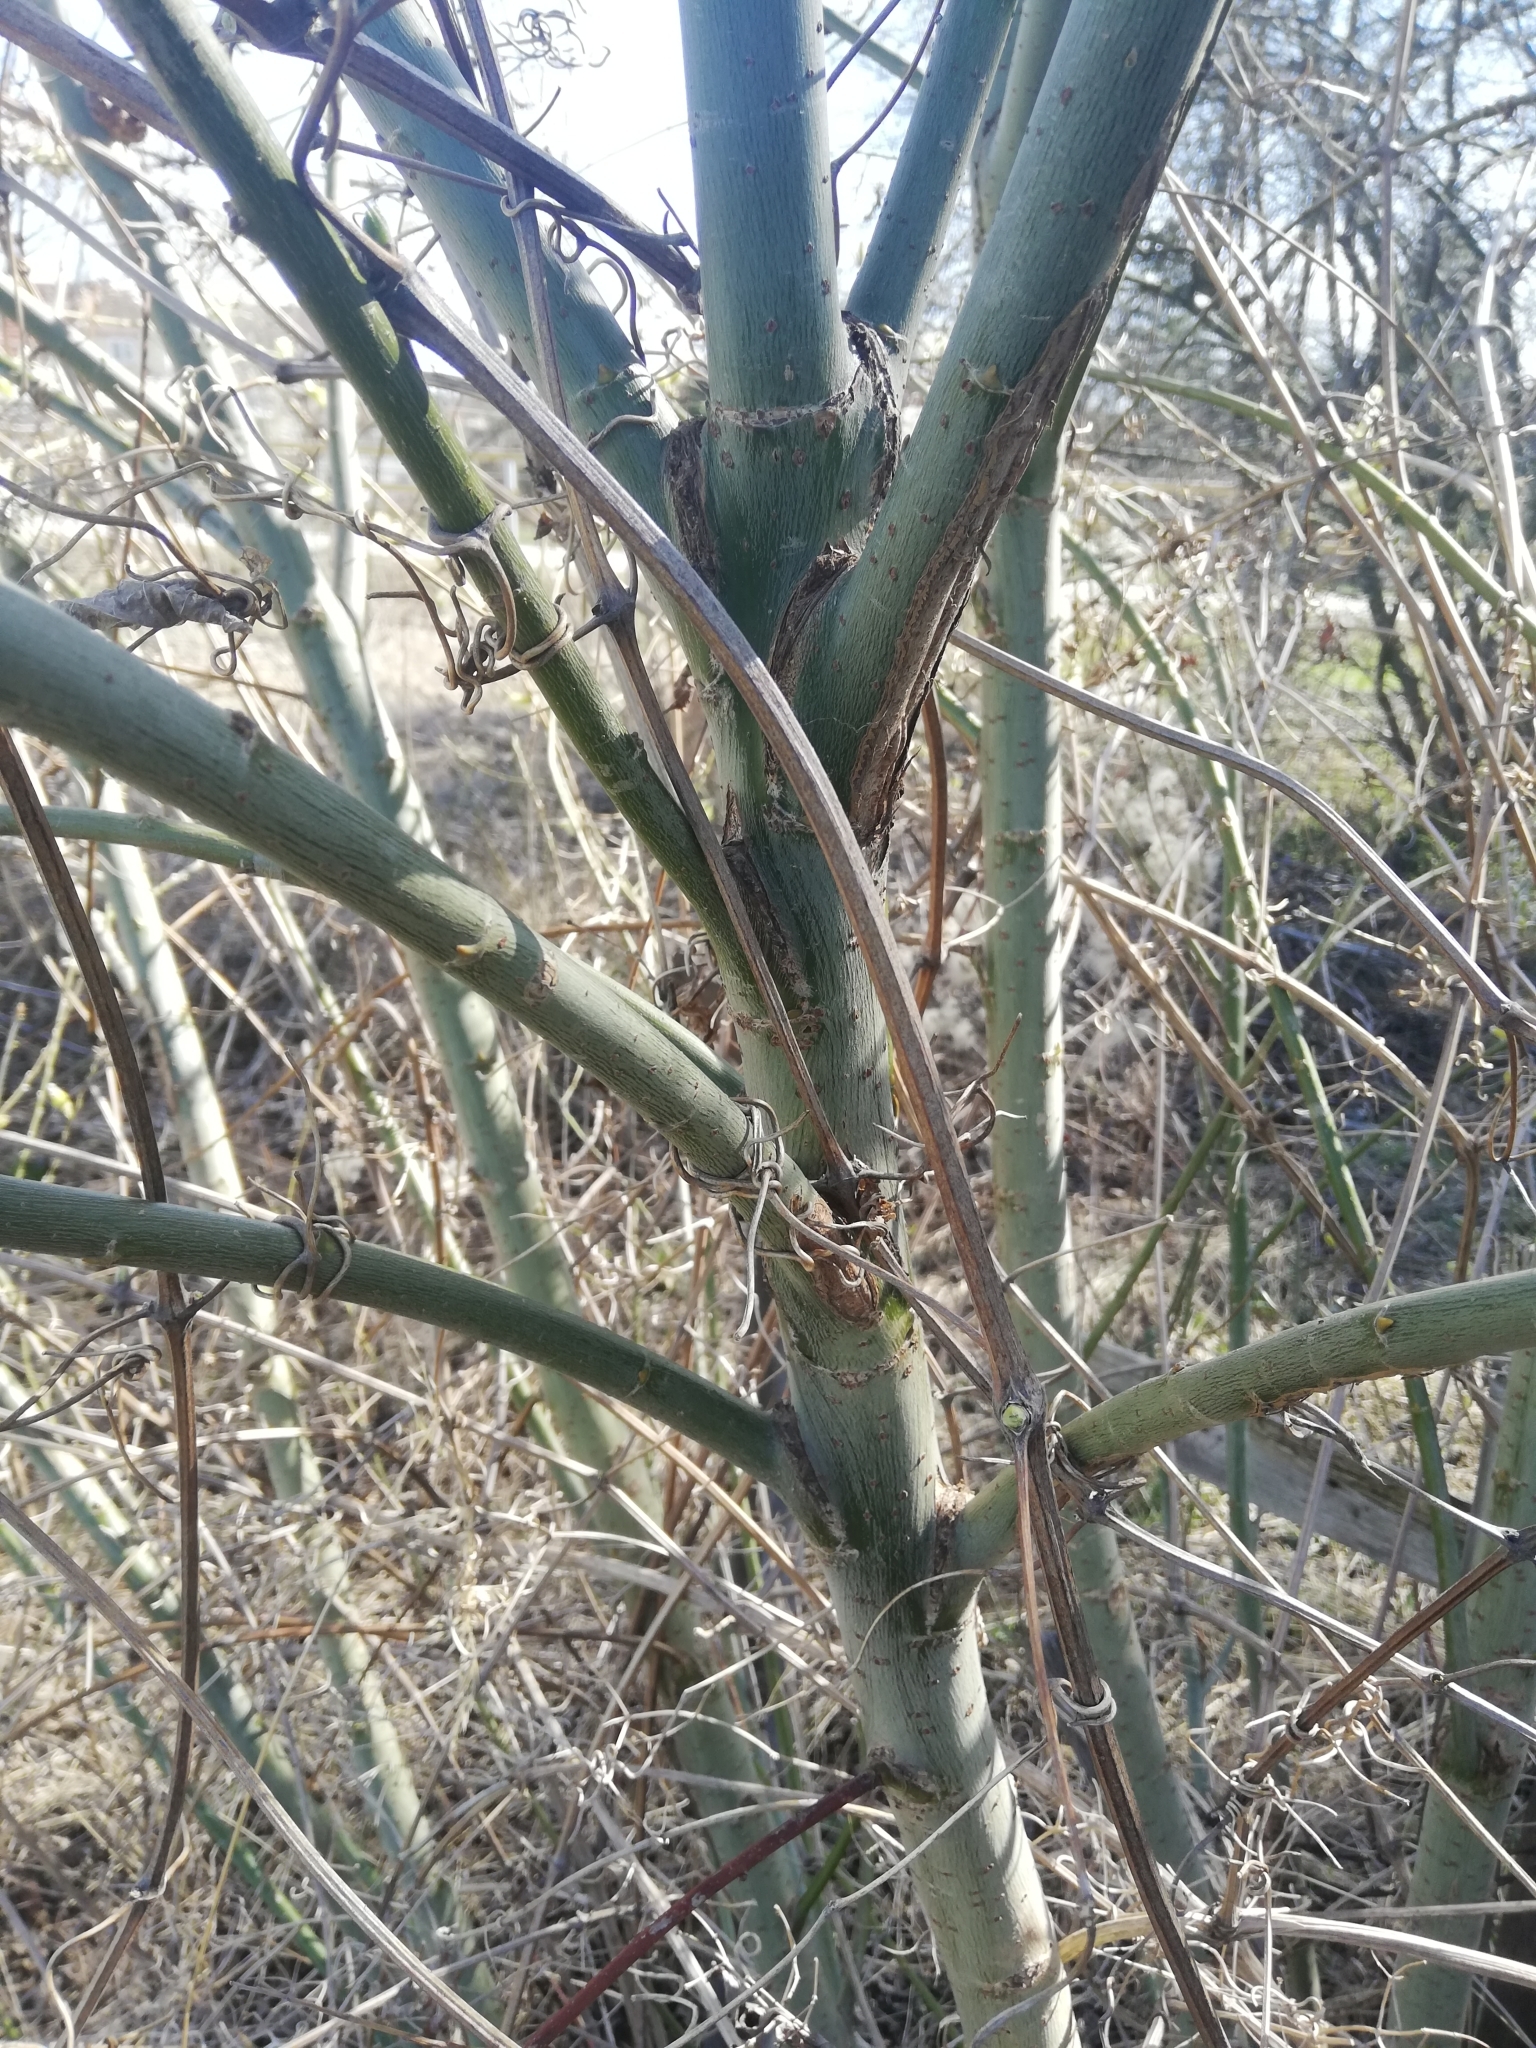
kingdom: Plantae
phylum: Tracheophyta
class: Magnoliopsida
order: Ranunculales
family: Ranunculaceae
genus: Clematis
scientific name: Clematis vitalba
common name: Evergreen clematis
